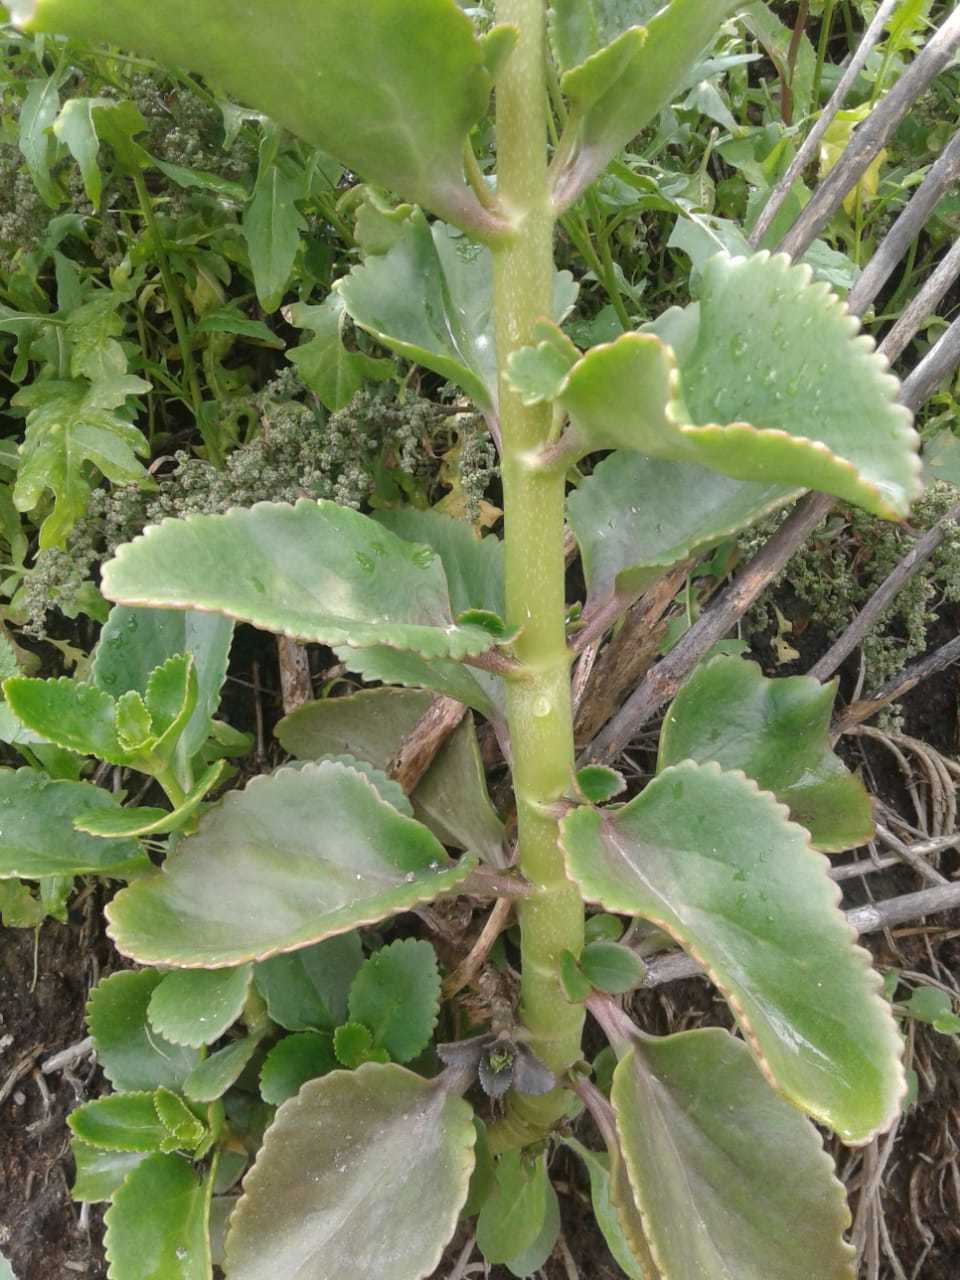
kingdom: Plantae
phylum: Tracheophyta
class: Magnoliopsida
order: Saxifragales
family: Crassulaceae
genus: Kalanchoe
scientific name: Kalanchoe densiflora
